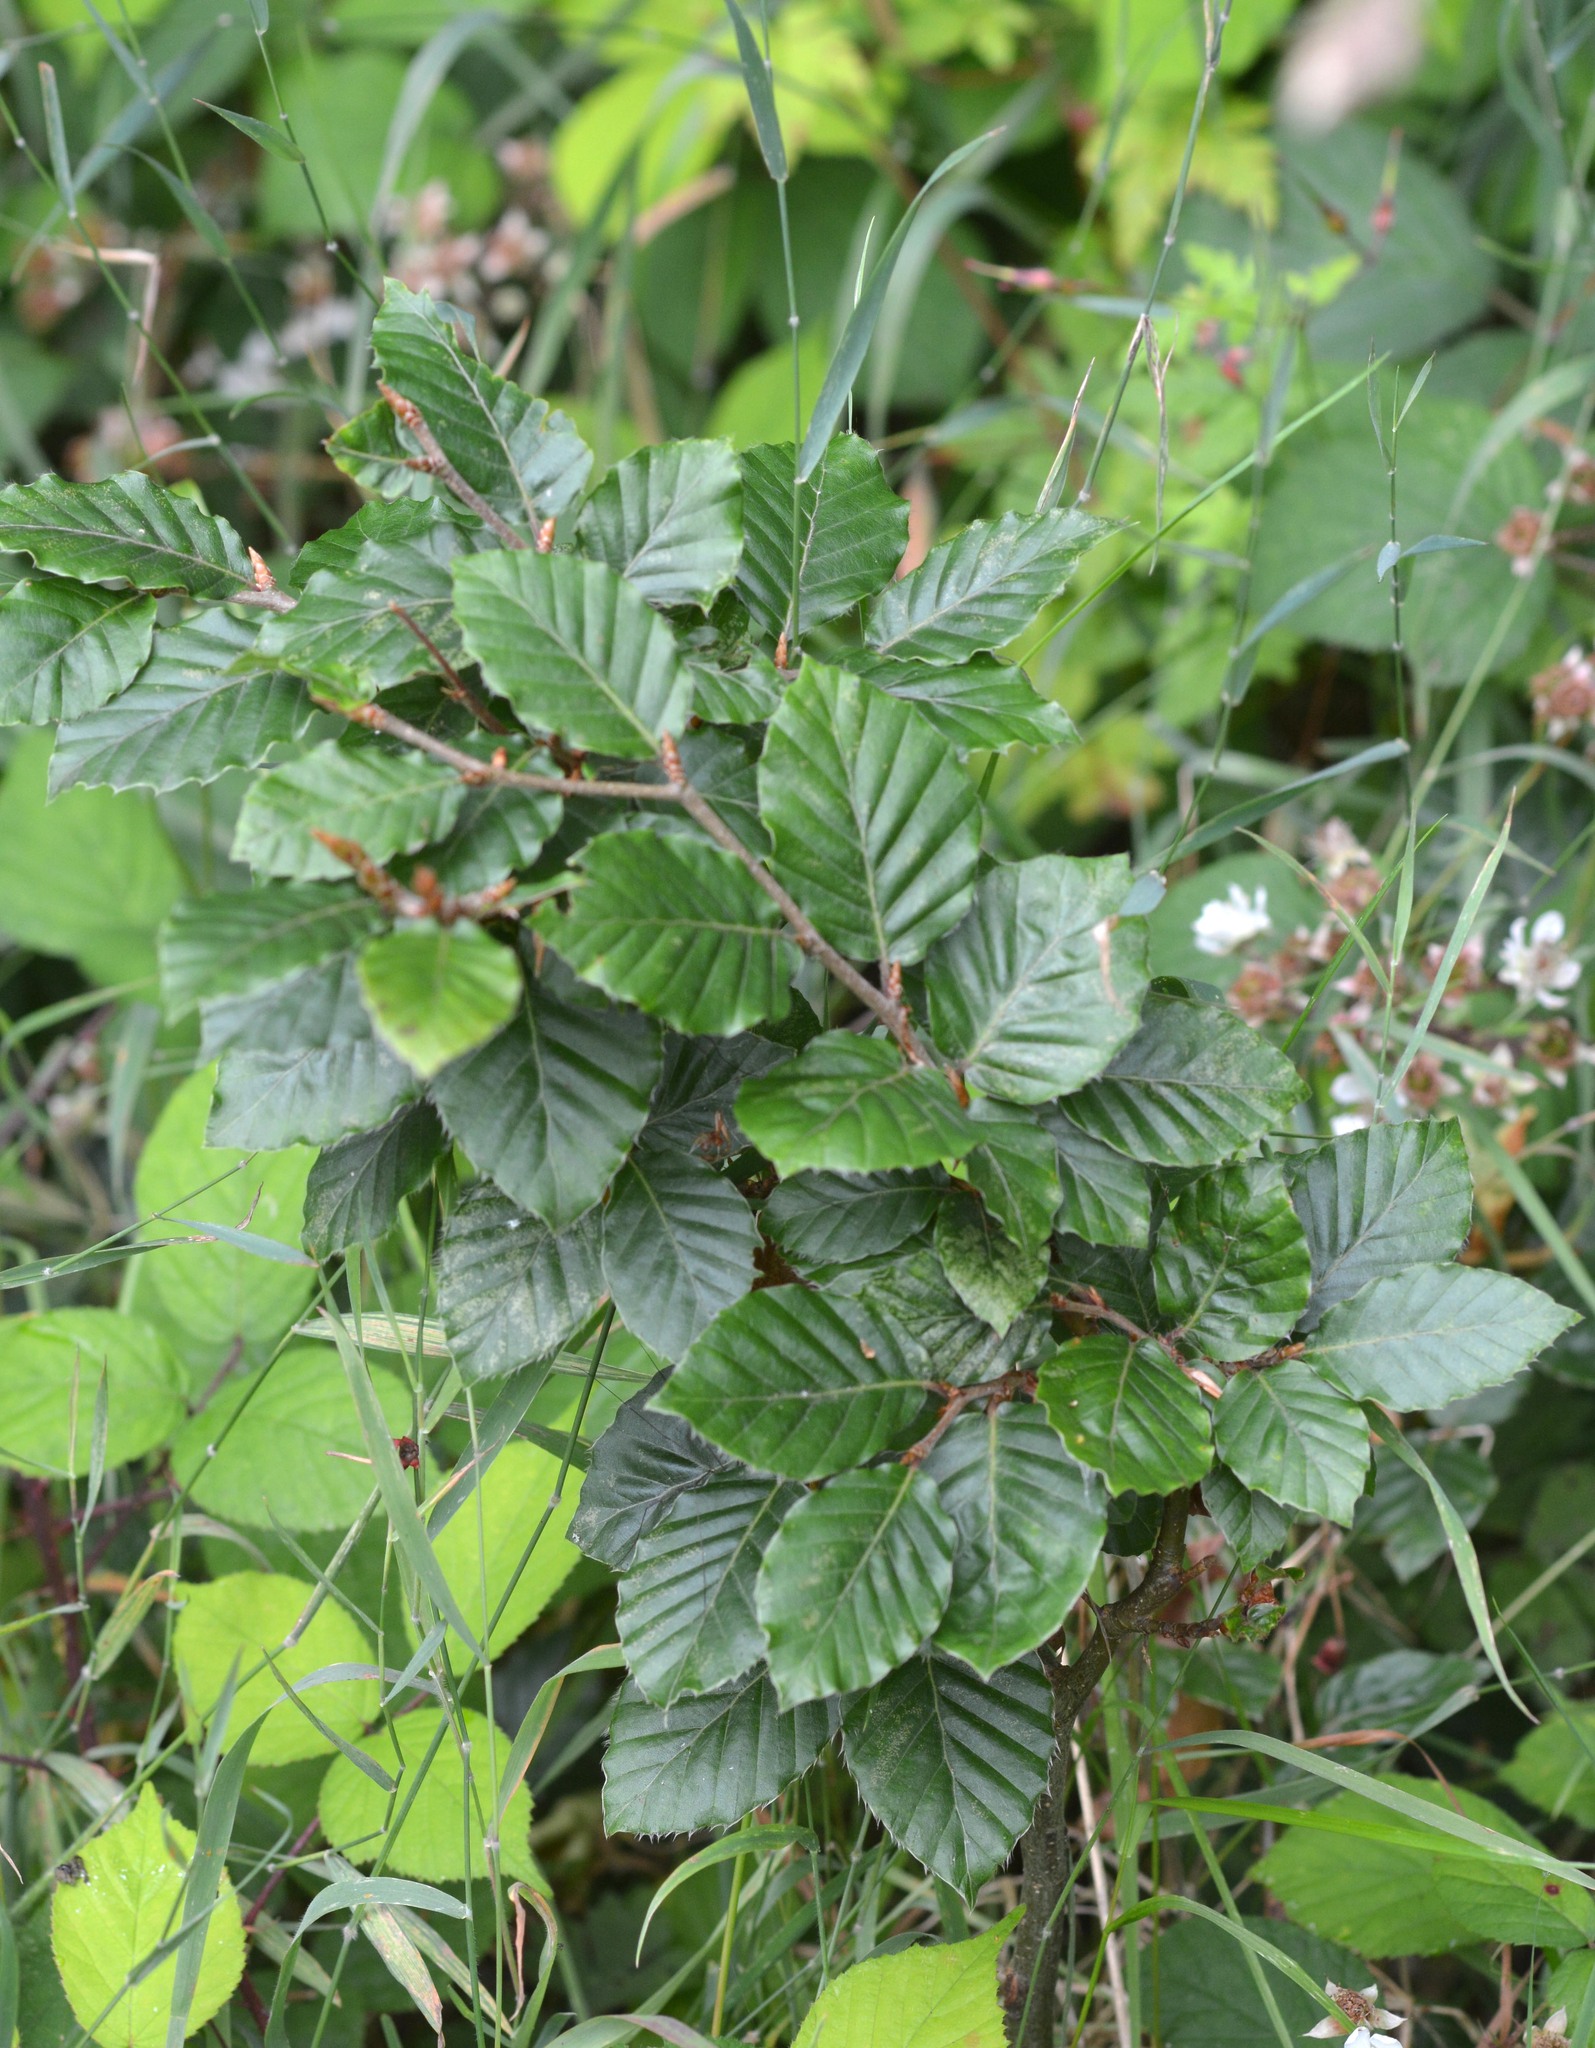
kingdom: Plantae
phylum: Tracheophyta
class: Magnoliopsida
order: Fagales
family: Fagaceae
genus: Fagus
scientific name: Fagus sylvatica
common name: Beech
